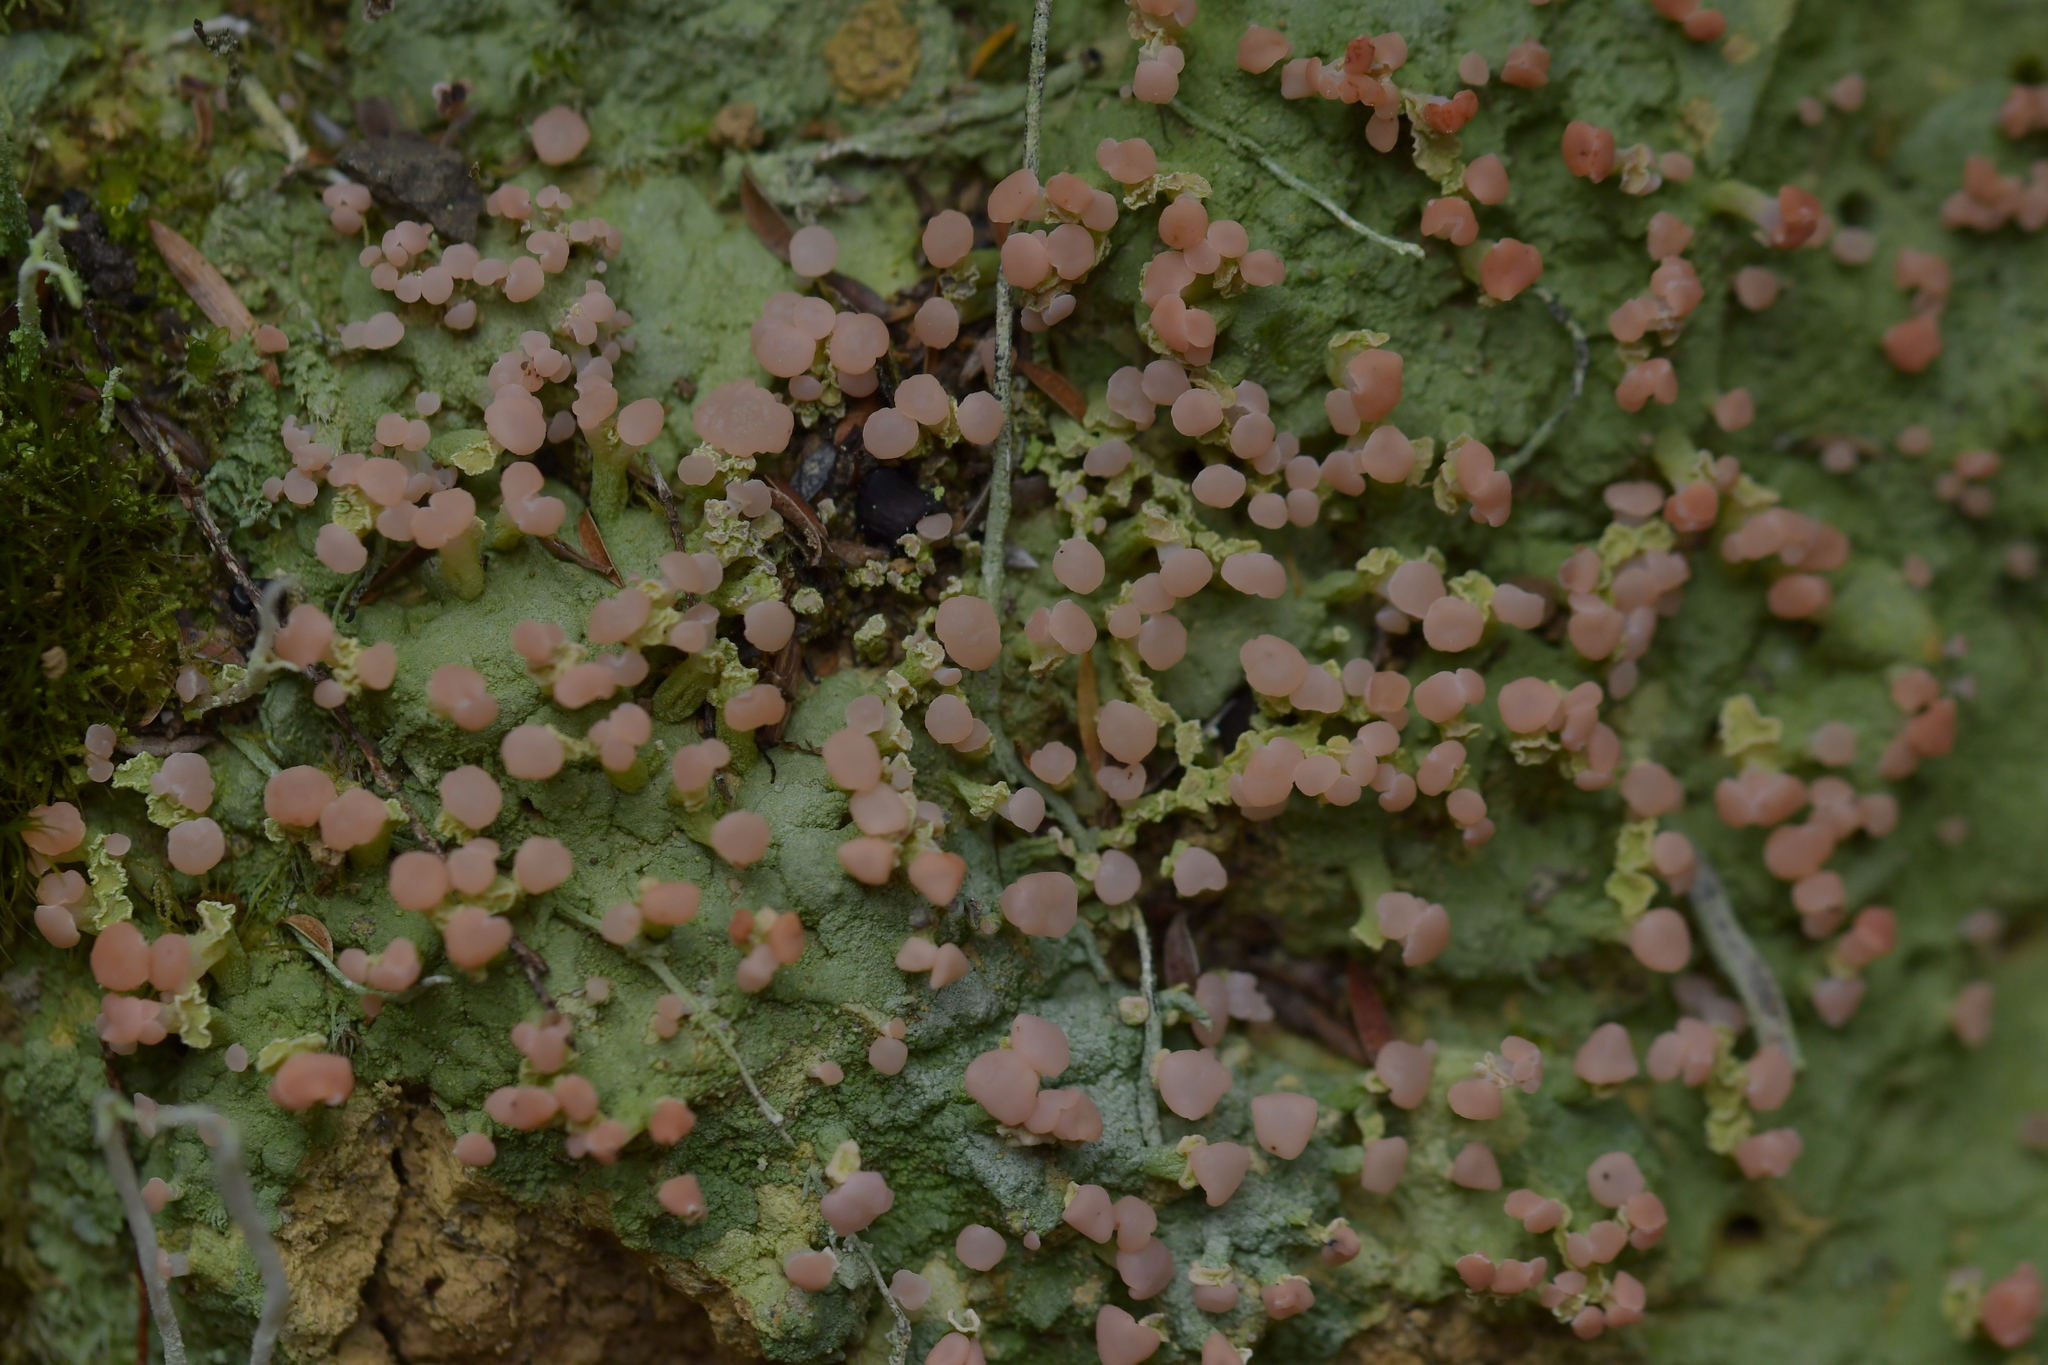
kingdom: Fungi
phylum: Ascomycota
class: Lecanoromycetes
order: Baeomycetales
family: Baeomycetaceae
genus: Baeomyces
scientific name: Baeomyces heteromorphus
